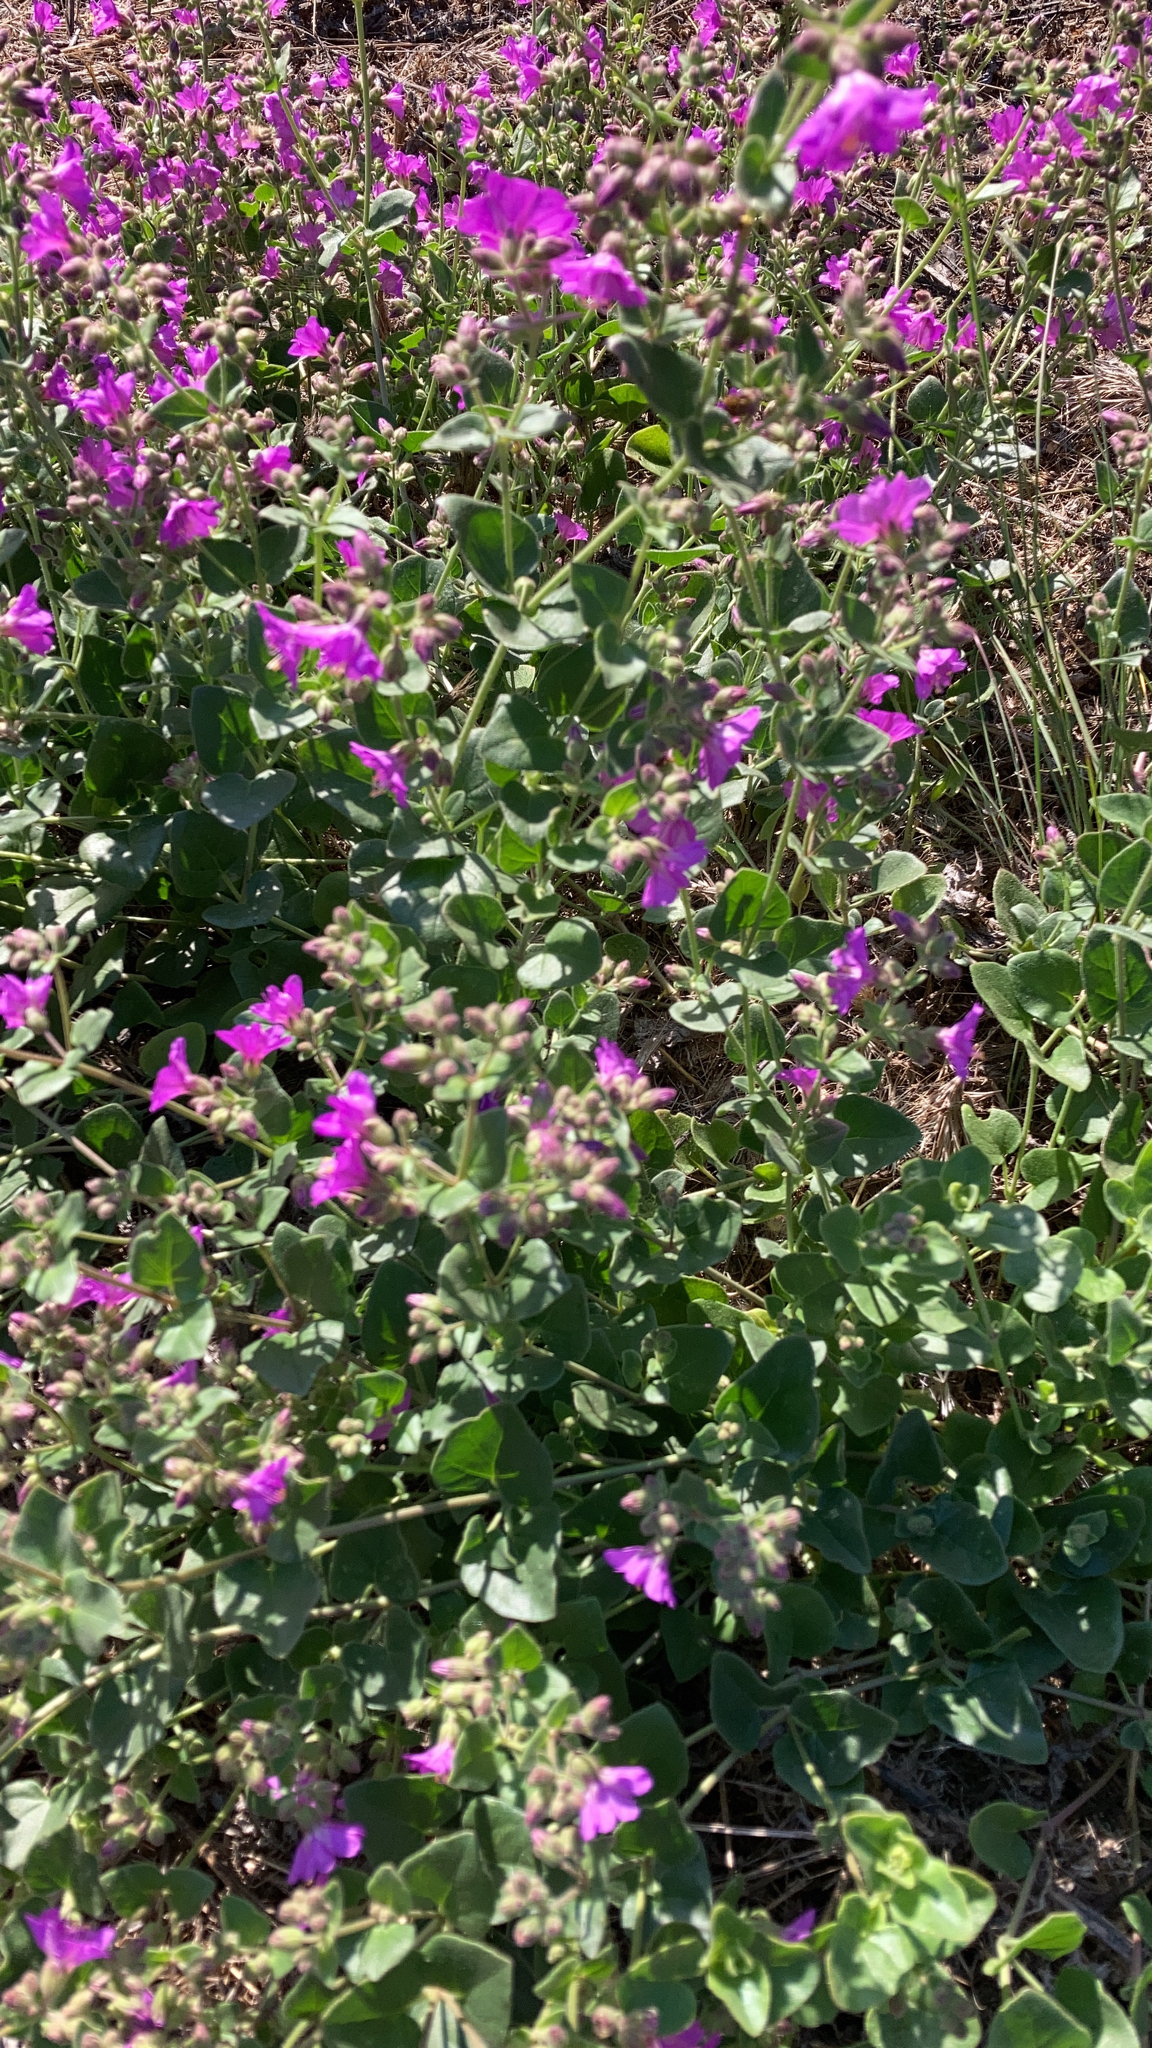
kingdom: Plantae
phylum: Tracheophyta
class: Magnoliopsida
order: Caryophyllales
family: Nyctaginaceae
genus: Mirabilis
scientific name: Mirabilis laevis
